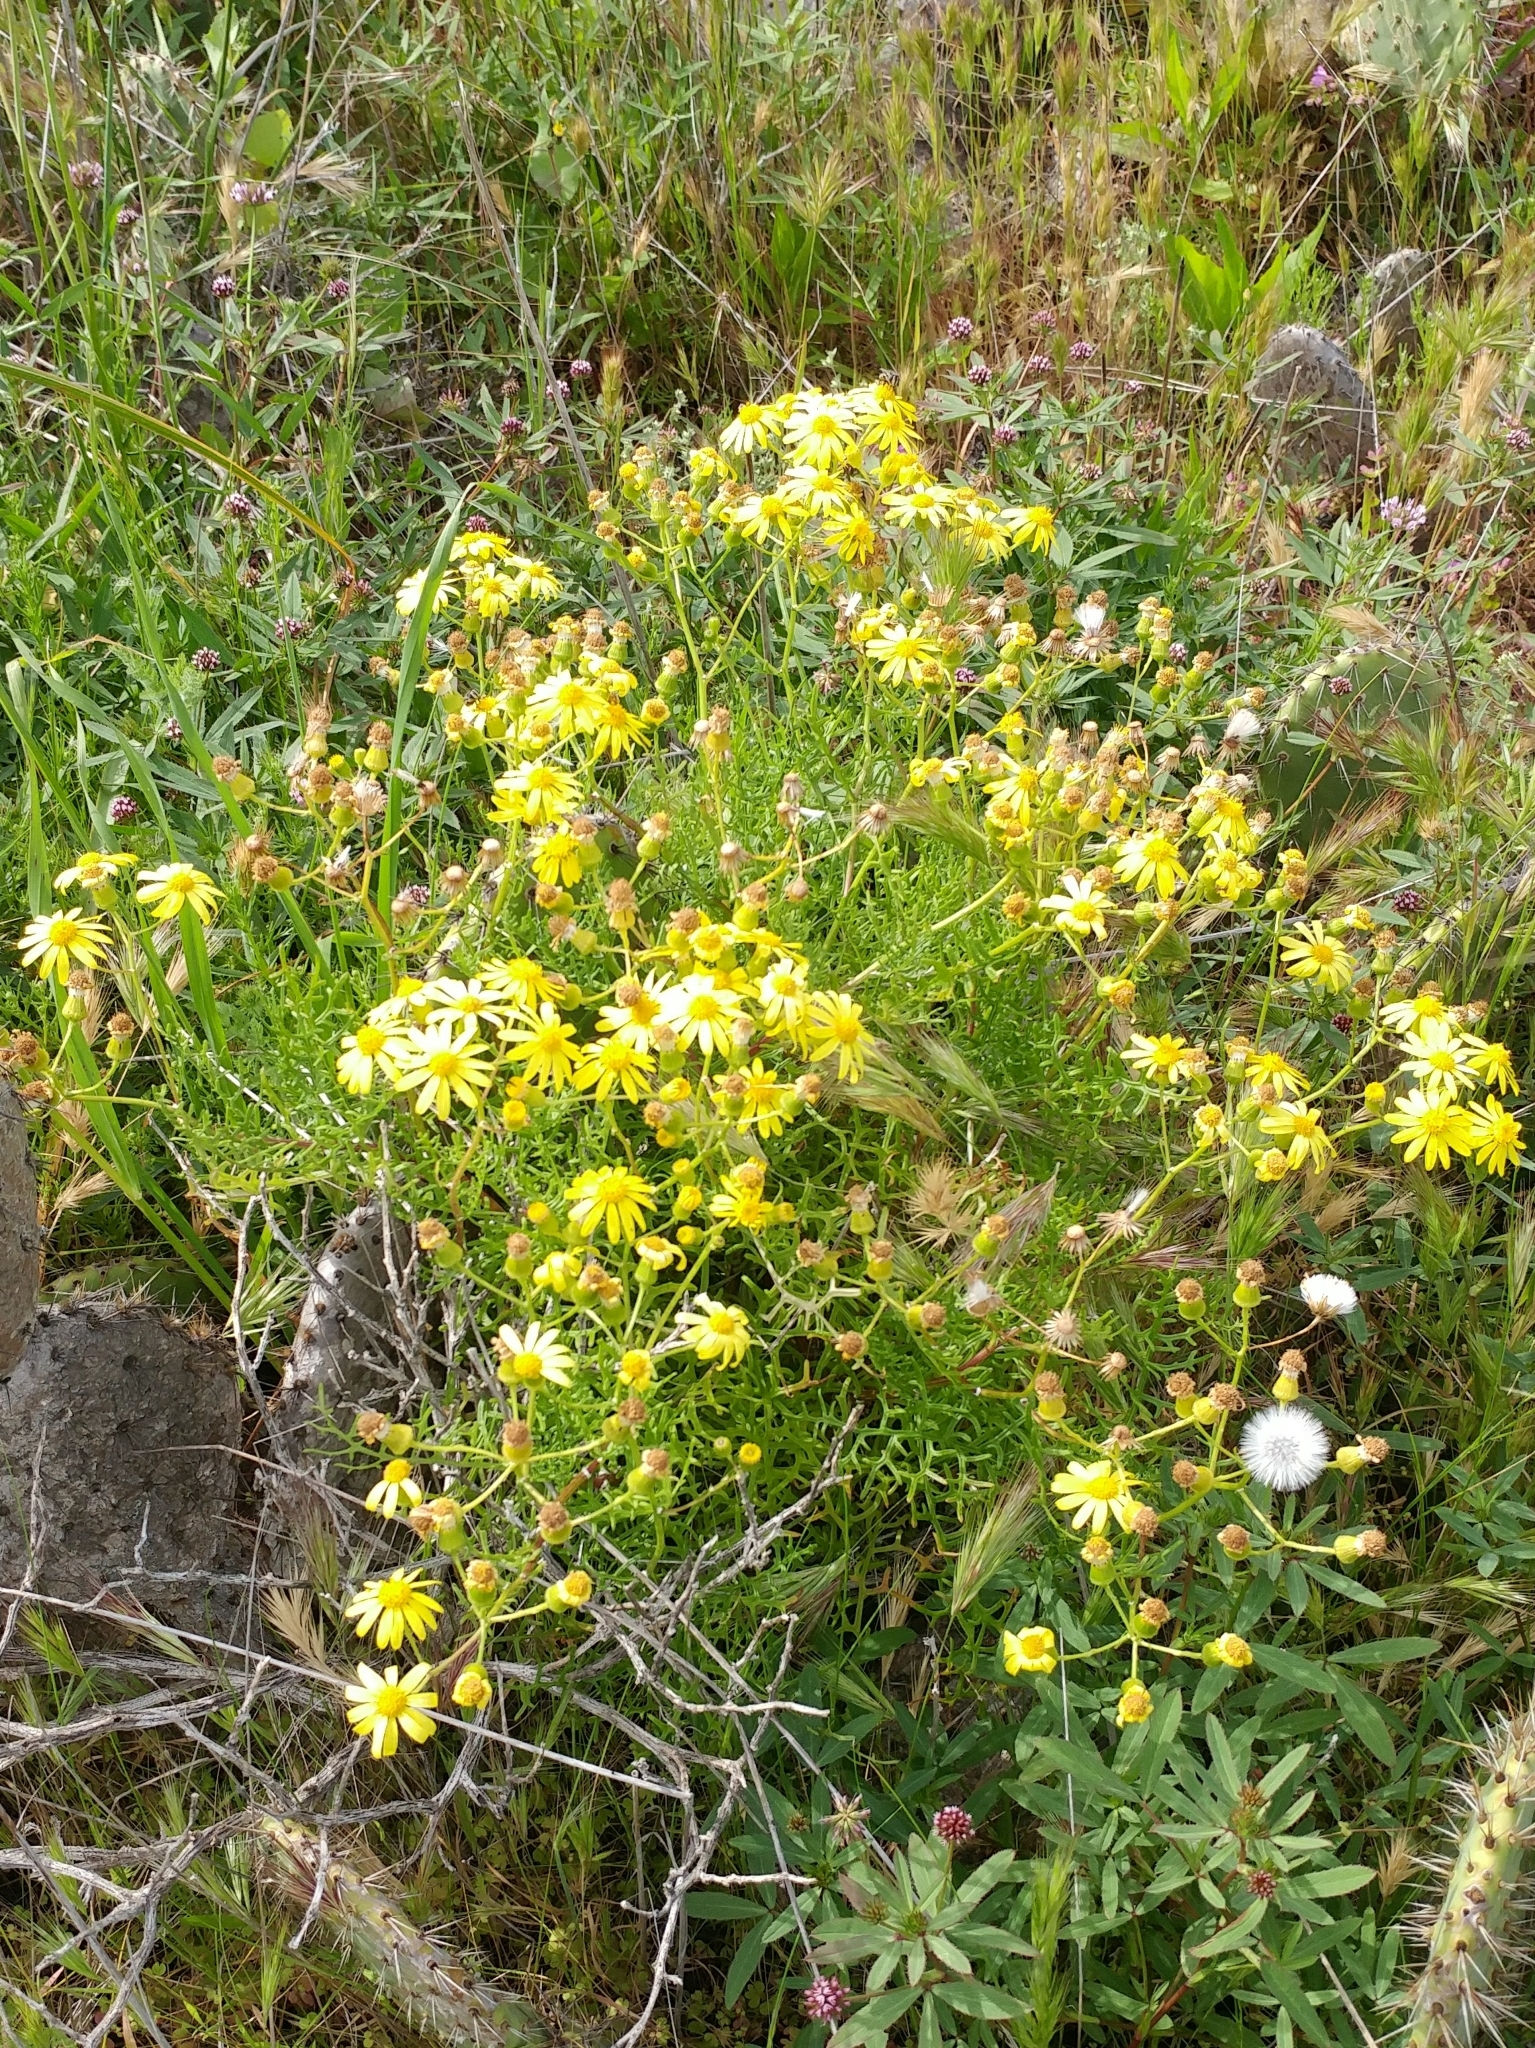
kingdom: Plantae
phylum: Tracheophyta
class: Magnoliopsida
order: Asterales
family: Asteraceae
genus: Senecio
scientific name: Senecio lyonii
